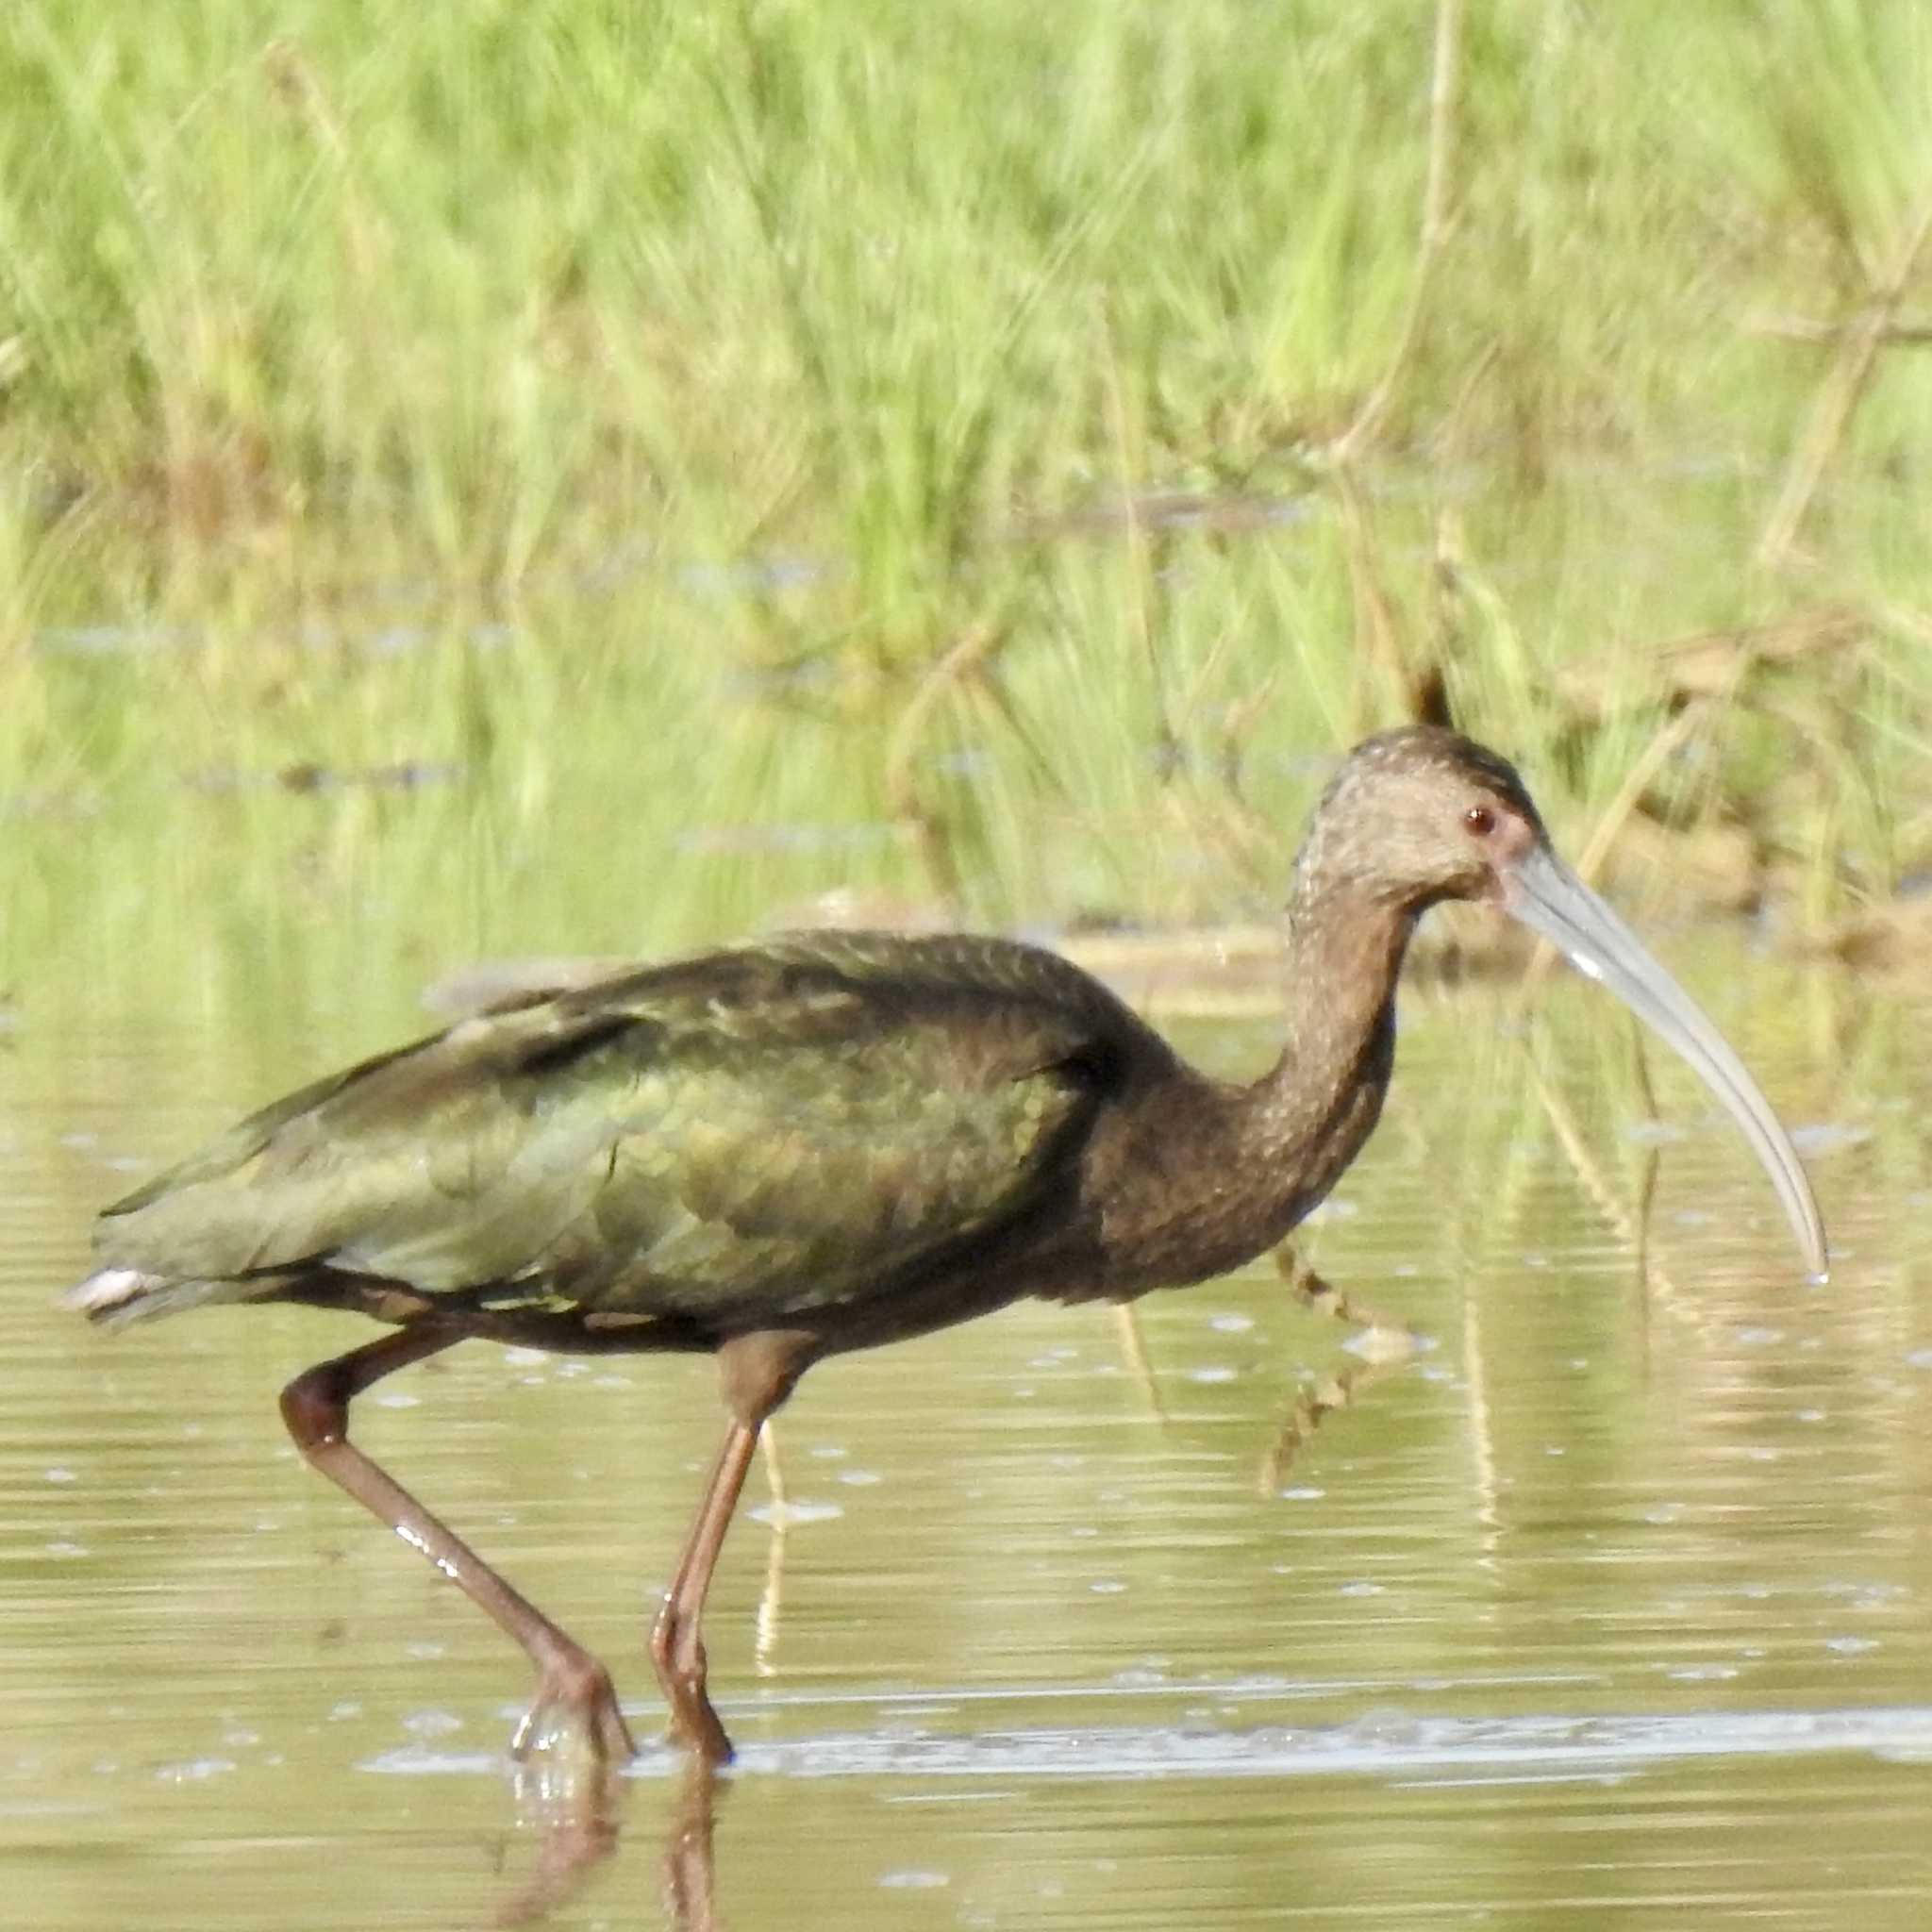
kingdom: Animalia
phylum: Chordata
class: Aves
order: Pelecaniformes
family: Threskiornithidae
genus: Plegadis
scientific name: Plegadis chihi
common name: White-faced ibis
